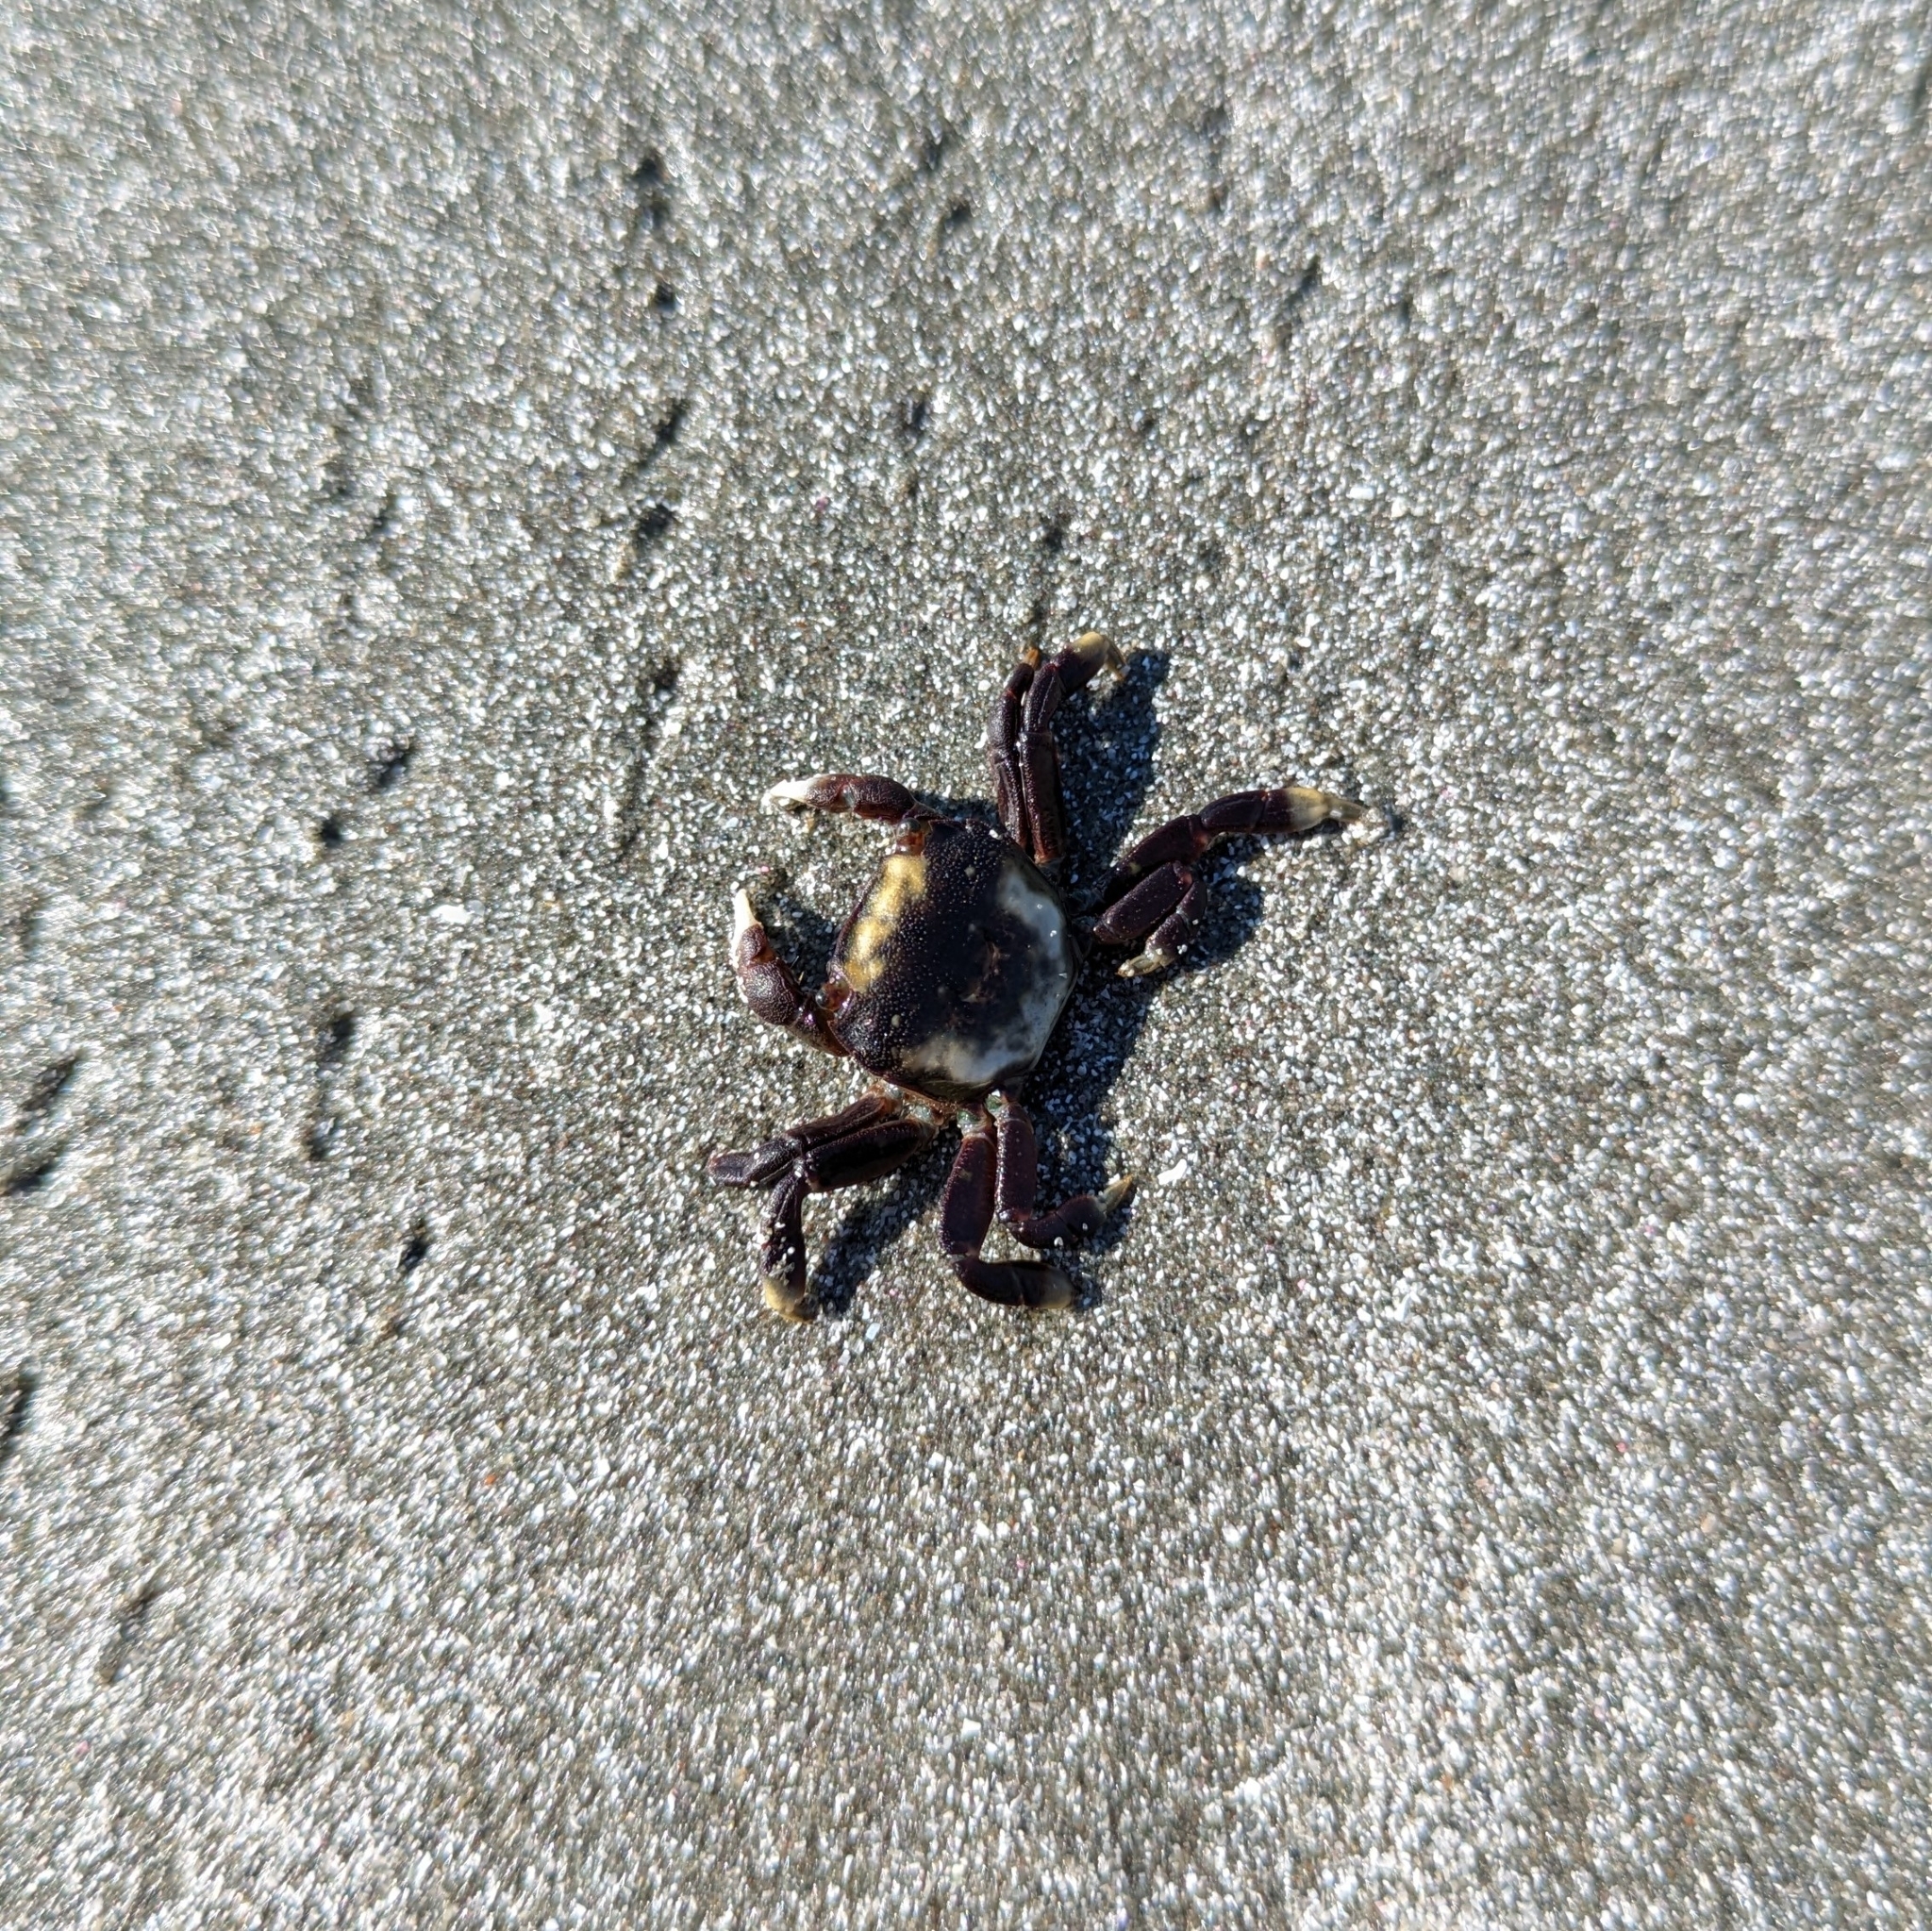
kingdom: Animalia
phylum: Arthropoda
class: Malacostraca
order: Decapoda
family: Varunidae
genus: Hemigrapsus
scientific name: Hemigrapsus nudus
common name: Purple shore crab
